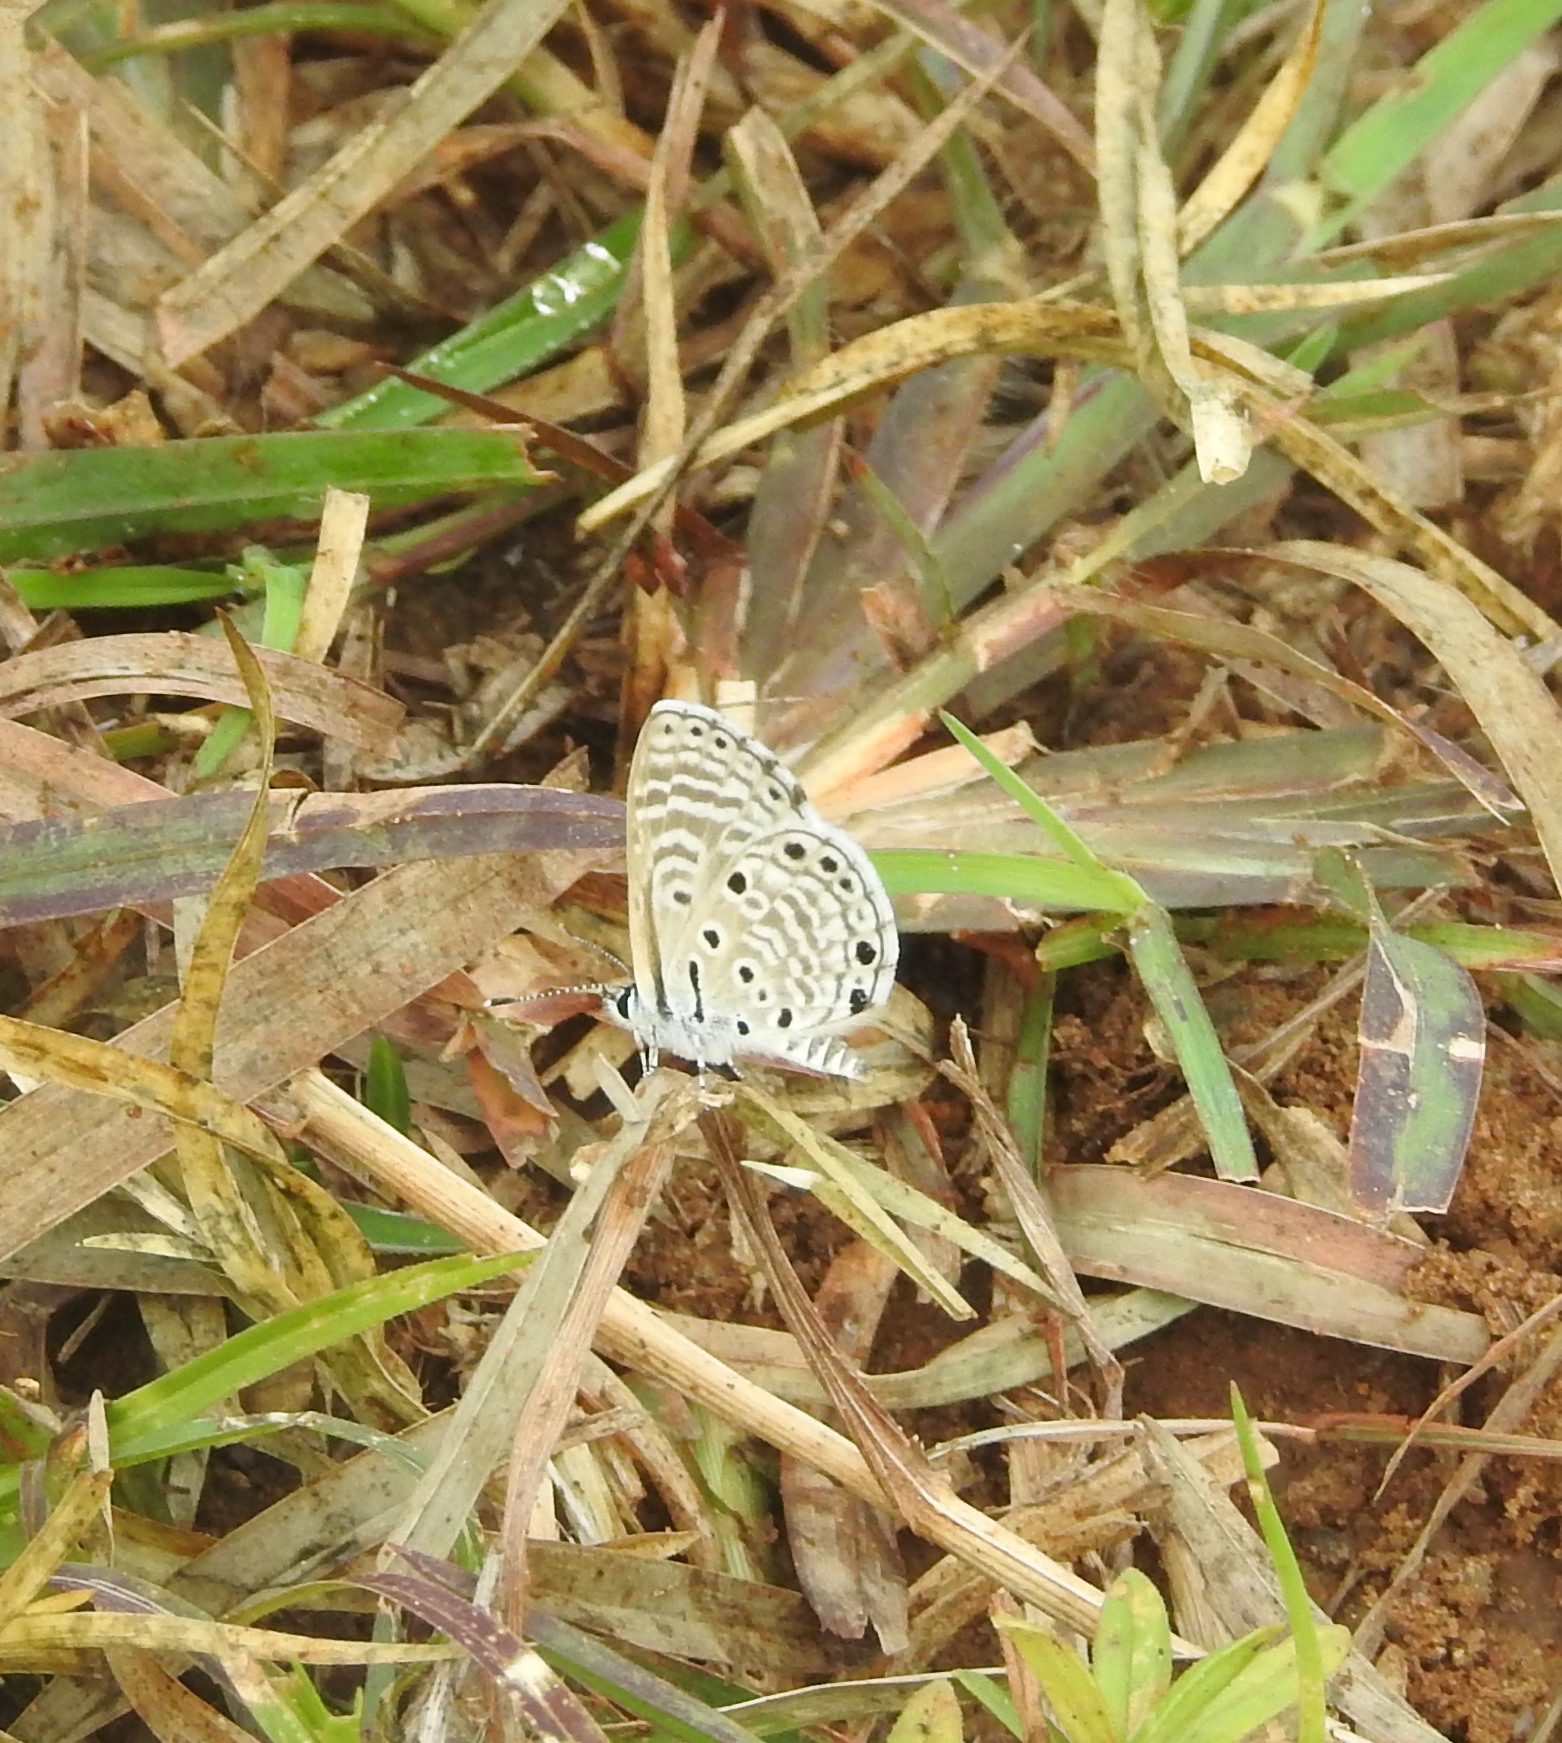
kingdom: Animalia
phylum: Arthropoda
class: Insecta
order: Lepidoptera
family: Lycaenidae
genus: Azanus
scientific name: Azanus jesous
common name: African babul blue
